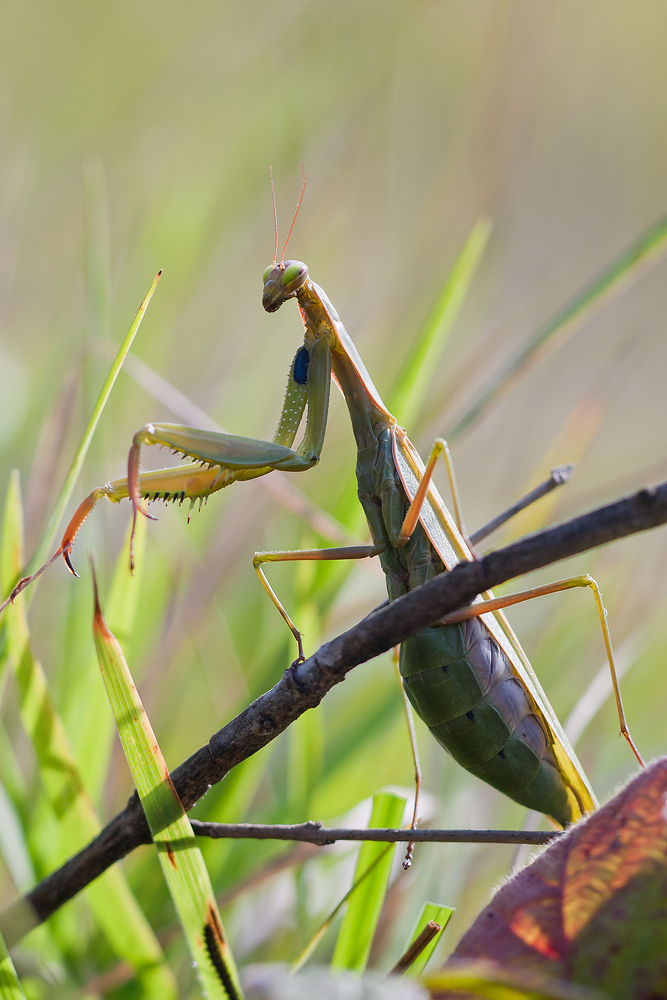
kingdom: Animalia
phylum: Arthropoda
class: Insecta
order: Mantodea
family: Mantidae
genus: Mantis
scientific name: Mantis religiosa
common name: Praying mantis
